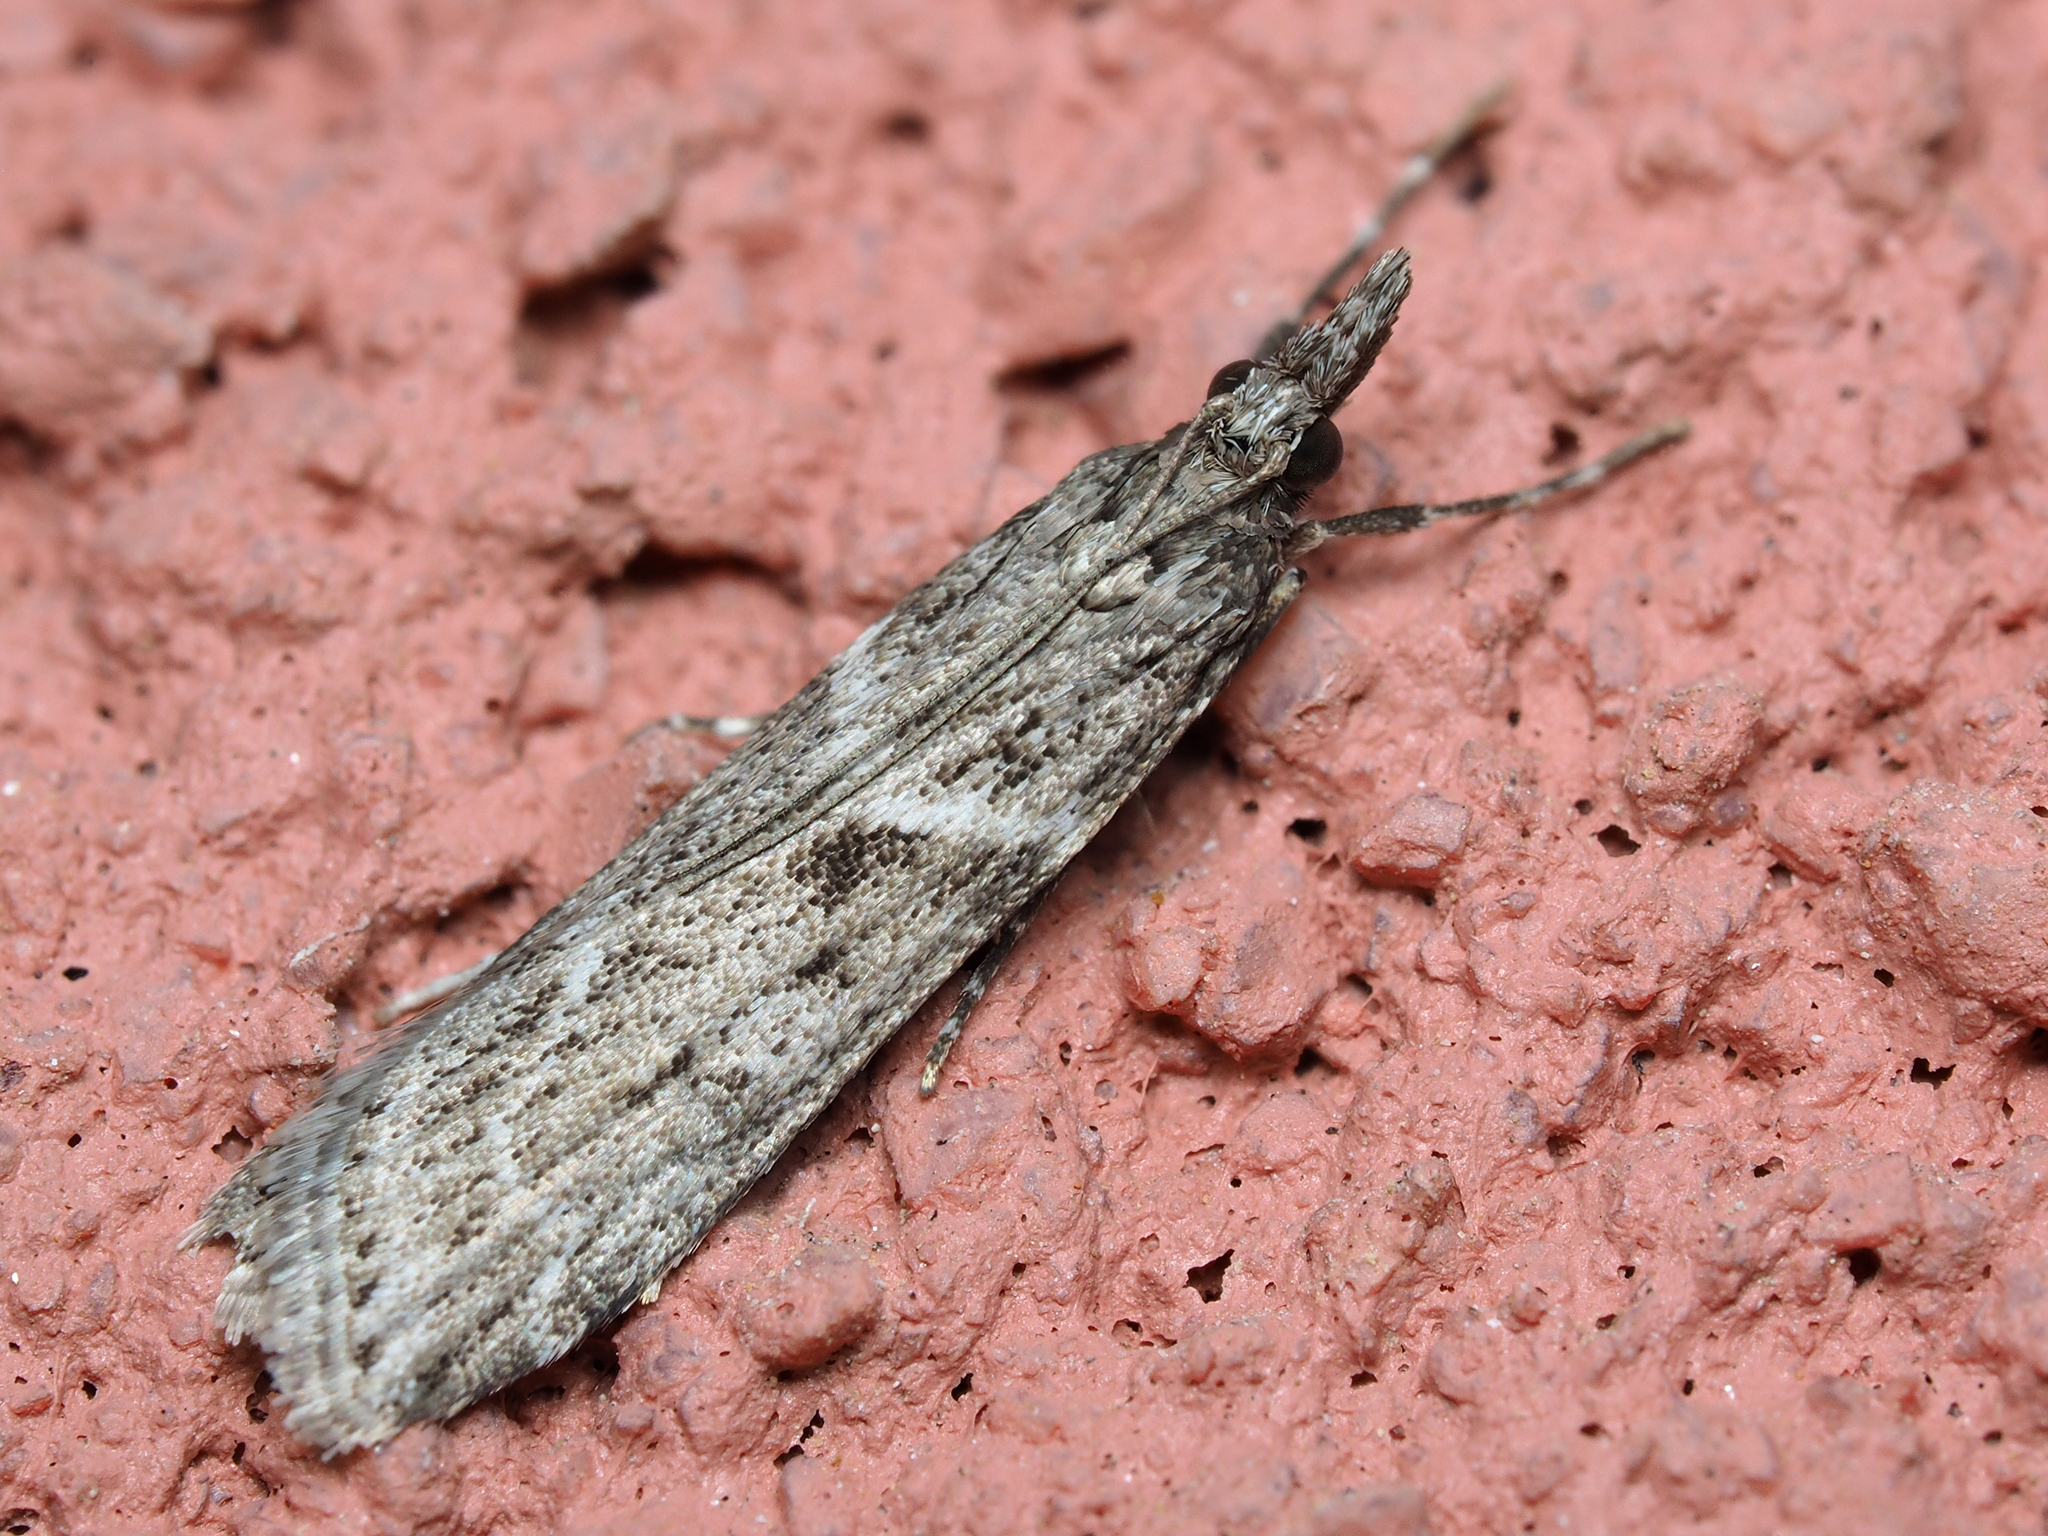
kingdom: Animalia
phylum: Arthropoda
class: Insecta
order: Lepidoptera
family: Crambidae
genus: Eudonia
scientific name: Eudonia angustea
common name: Narrow-winged grey
